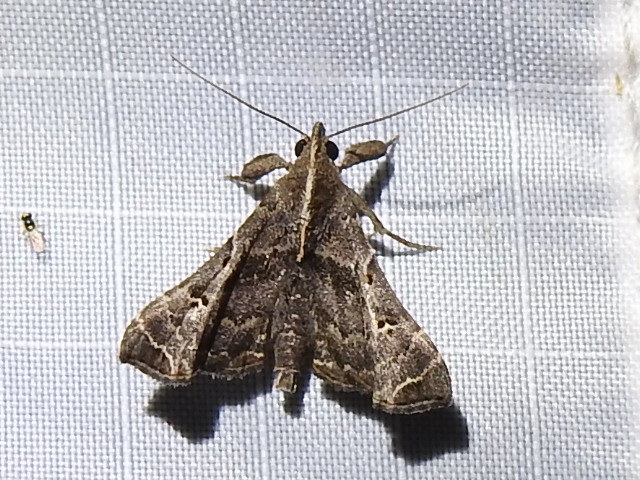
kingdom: Animalia
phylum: Arthropoda
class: Insecta
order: Lepidoptera
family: Erebidae
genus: Palthis
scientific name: Palthis asopialis
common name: Faint-spotted palthis moth
